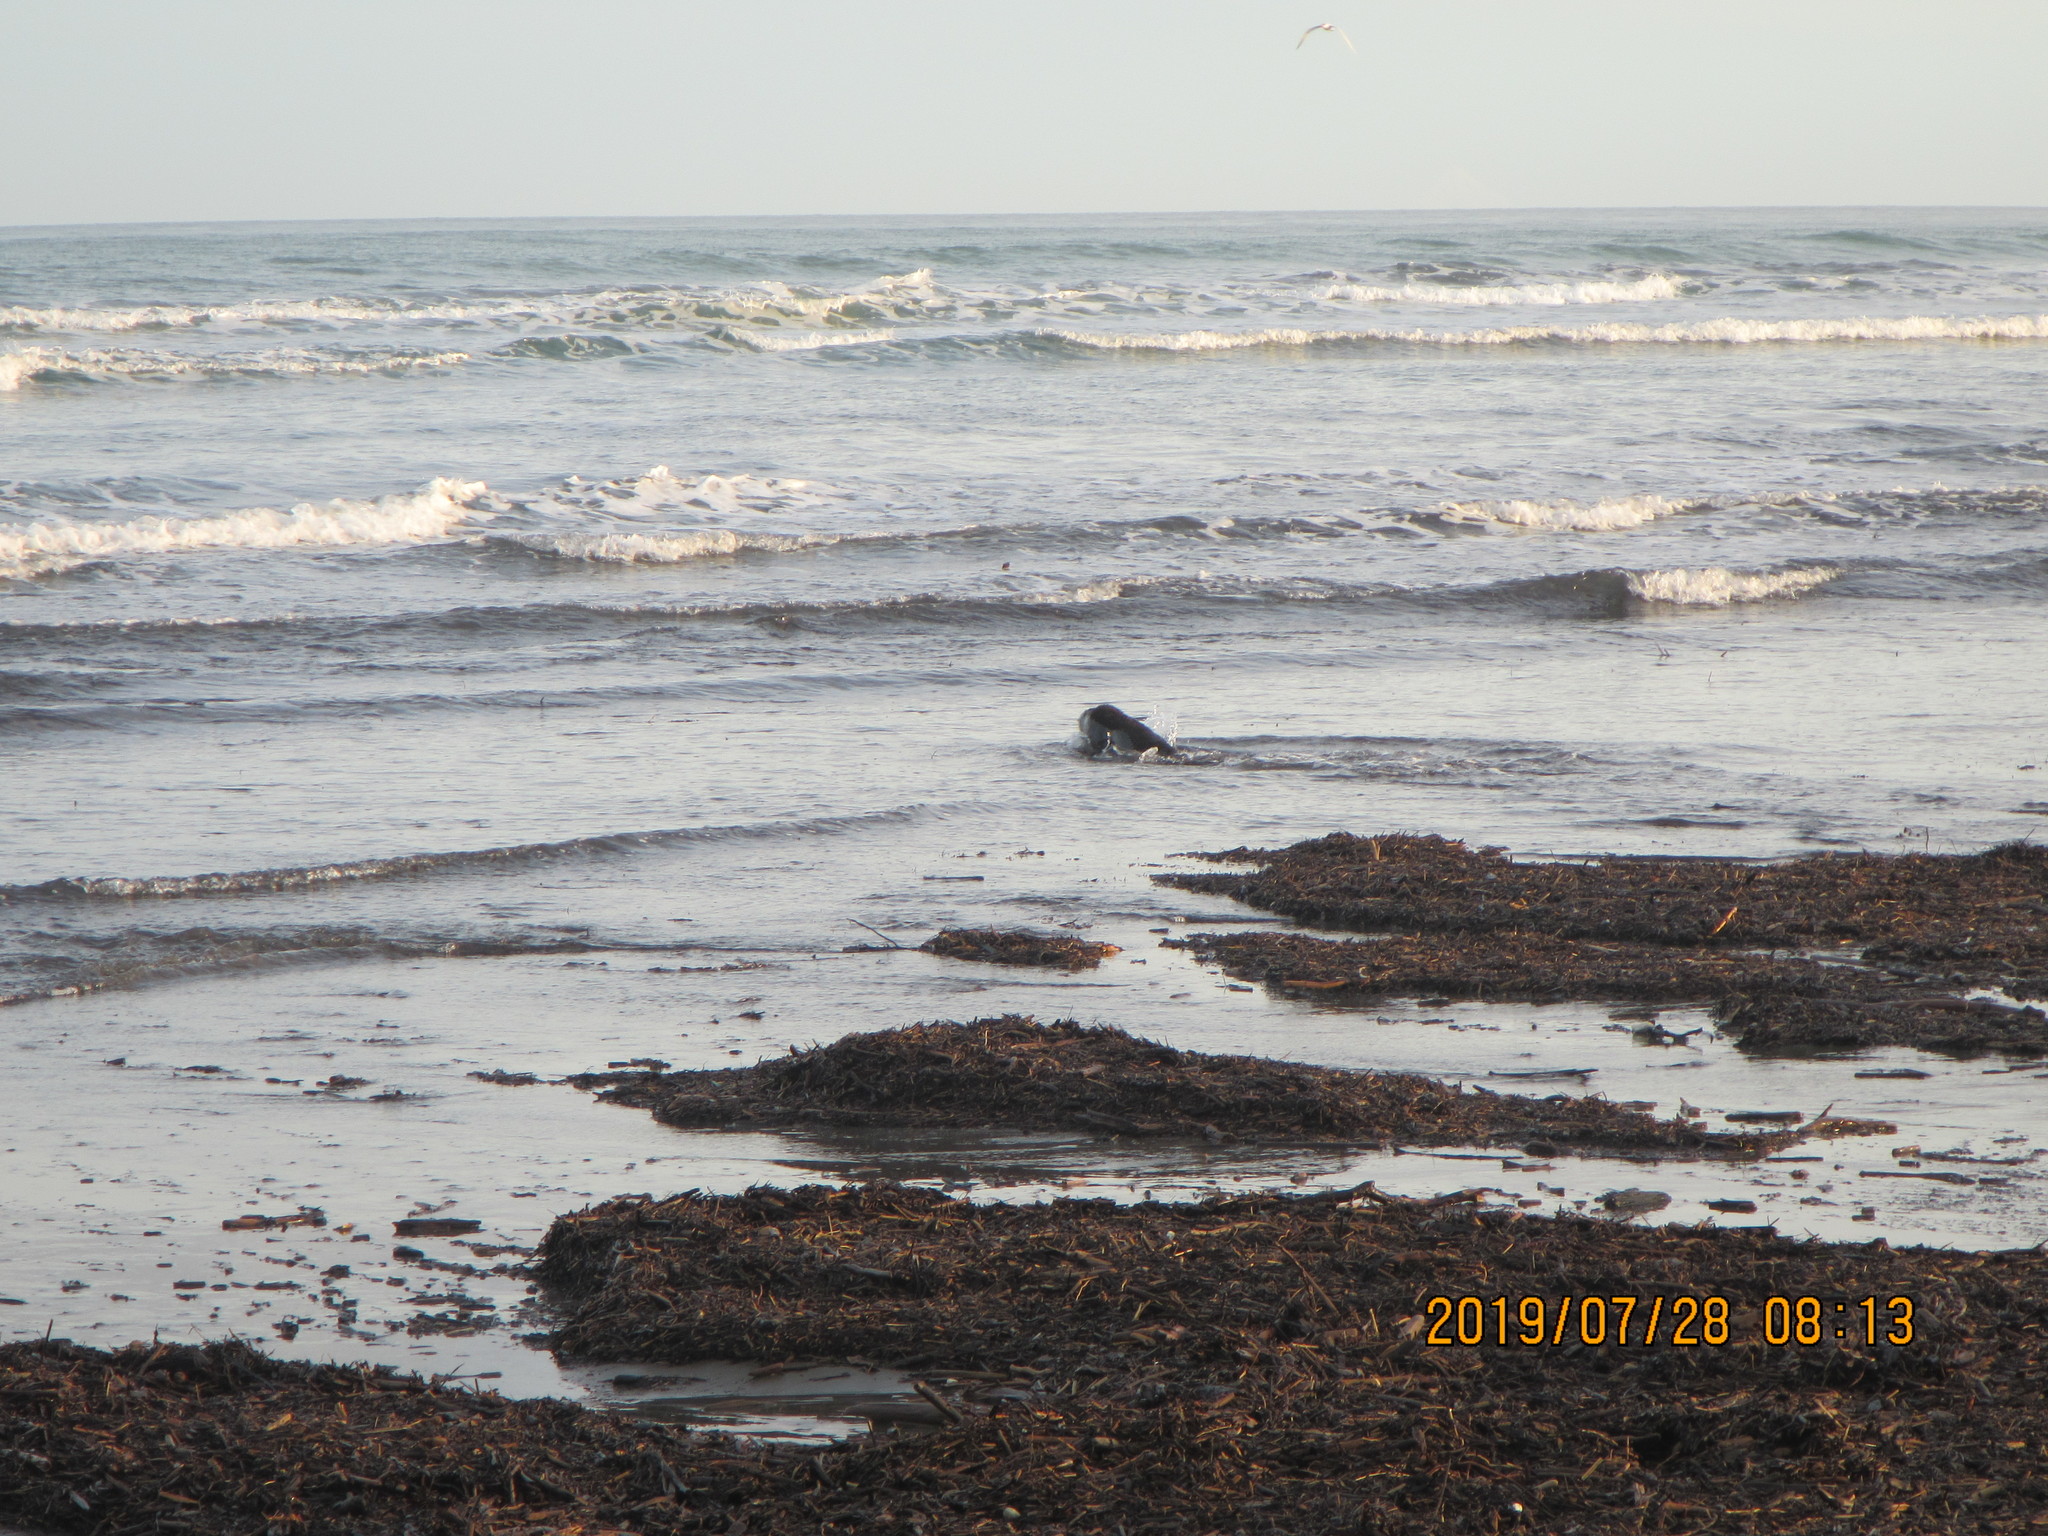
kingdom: Animalia
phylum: Chordata
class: Mammalia
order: Carnivora
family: Otariidae
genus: Arctocephalus
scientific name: Arctocephalus forsteri
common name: New zealand fur seal
